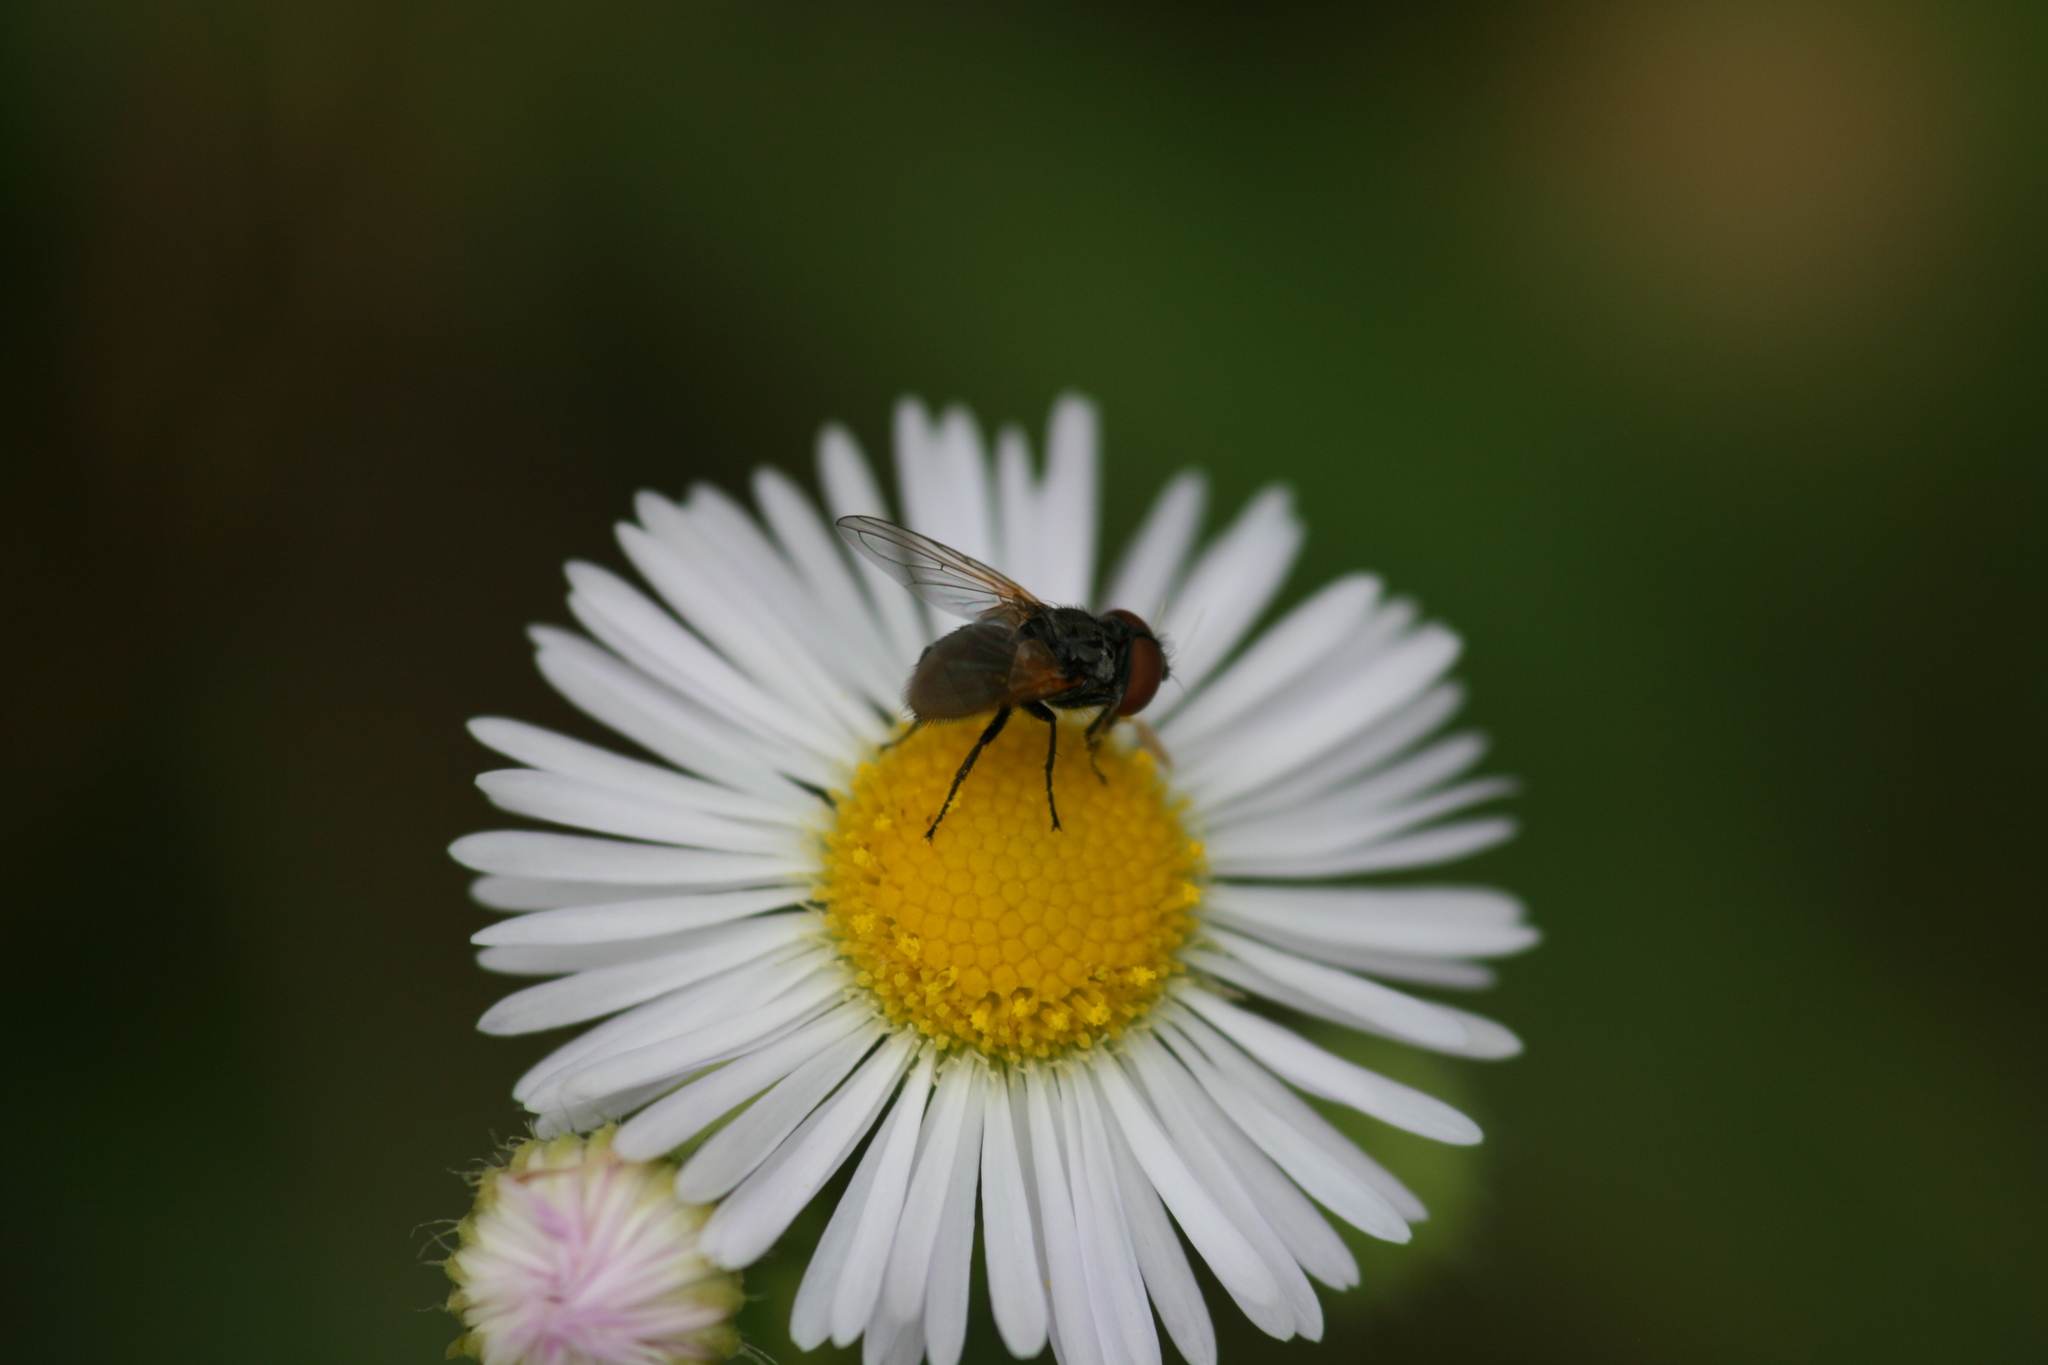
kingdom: Animalia
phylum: Arthropoda
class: Insecta
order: Diptera
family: Tachinidae
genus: Phasia
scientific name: Phasia obesa
